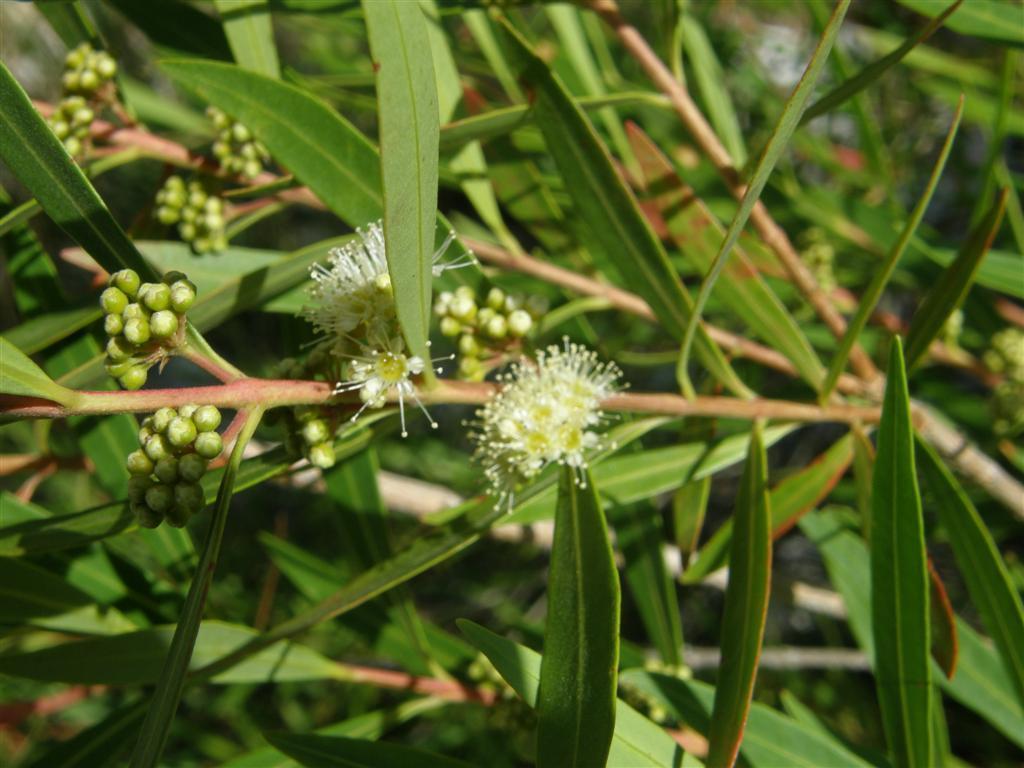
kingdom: Plantae
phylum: Tracheophyta
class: Magnoliopsida
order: Myrtales
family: Myrtaceae
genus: Callistemon
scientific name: Callistemon lanceolatus
